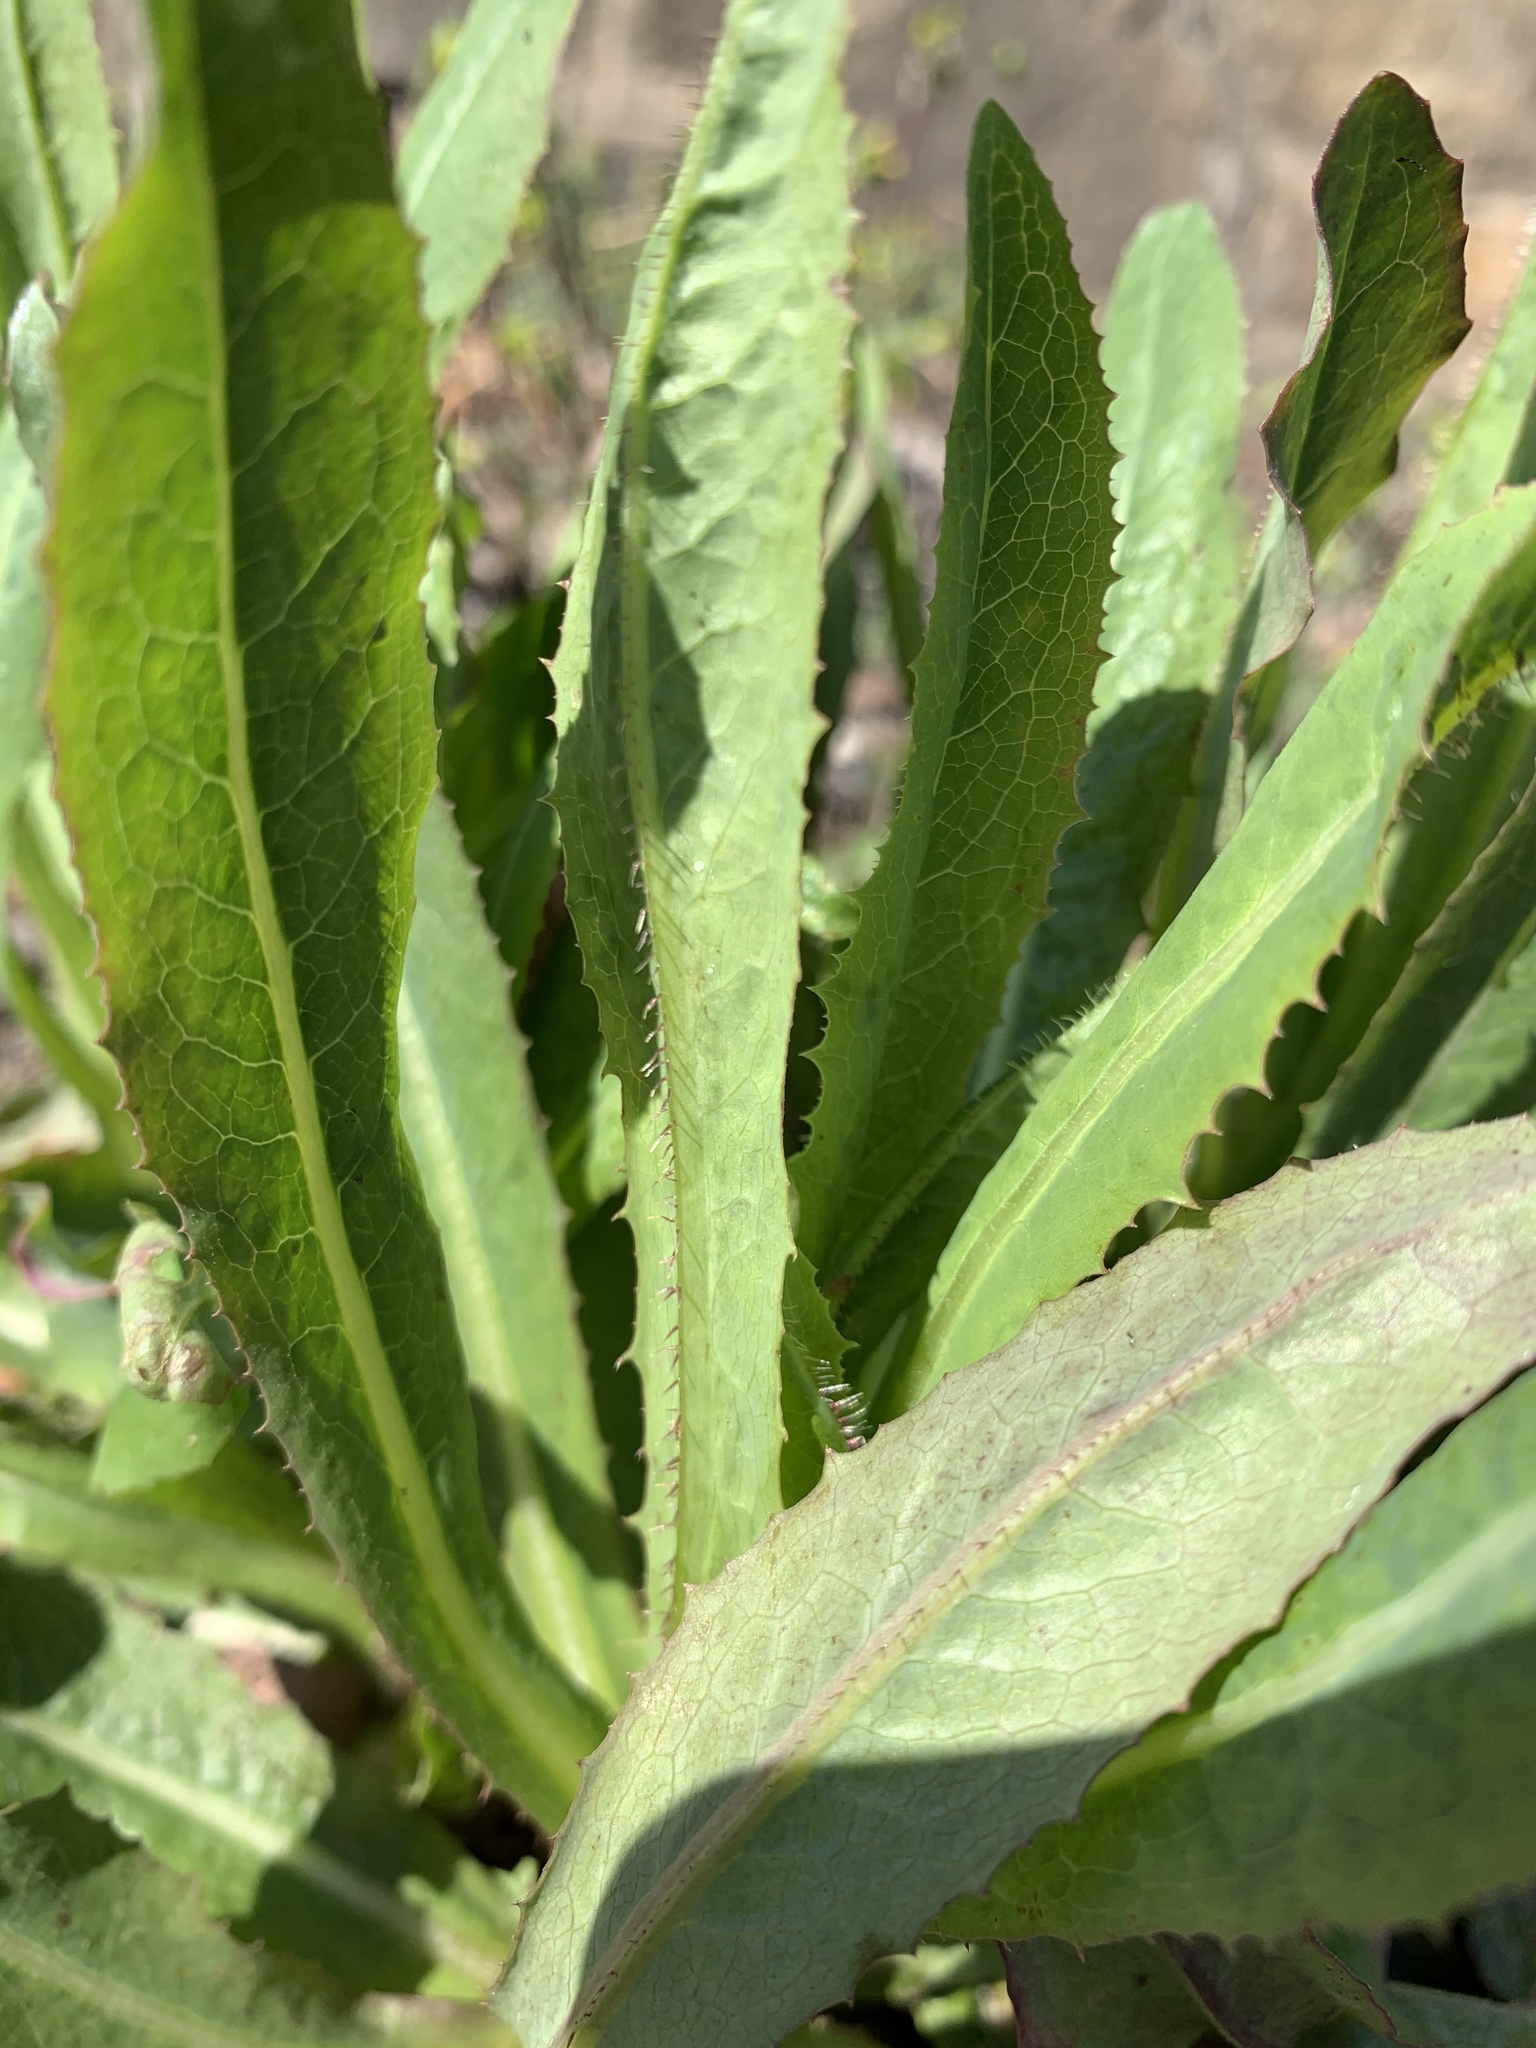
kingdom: Plantae
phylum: Tracheophyta
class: Magnoliopsida
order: Asterales
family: Asteraceae
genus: Lactuca
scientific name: Lactuca serriola
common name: Prickly lettuce
